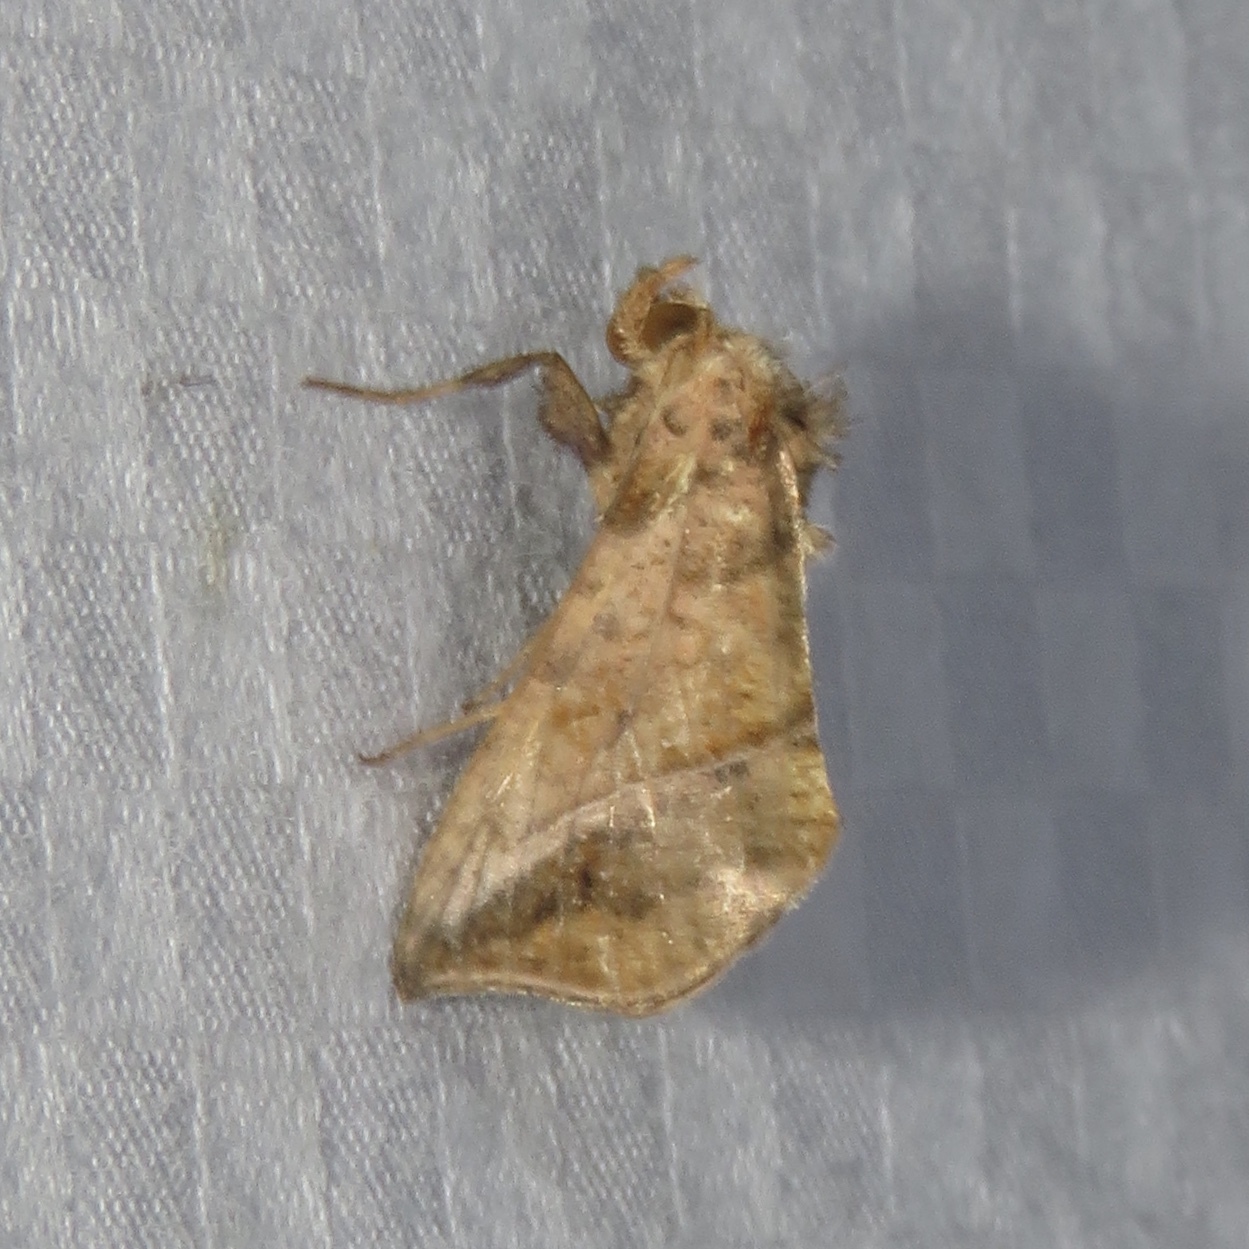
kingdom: Animalia
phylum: Arthropoda
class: Insecta
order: Lepidoptera
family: Noctuidae
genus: Pseudeva
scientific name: Pseudeva purpurigera
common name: Straight-lined looper moth
